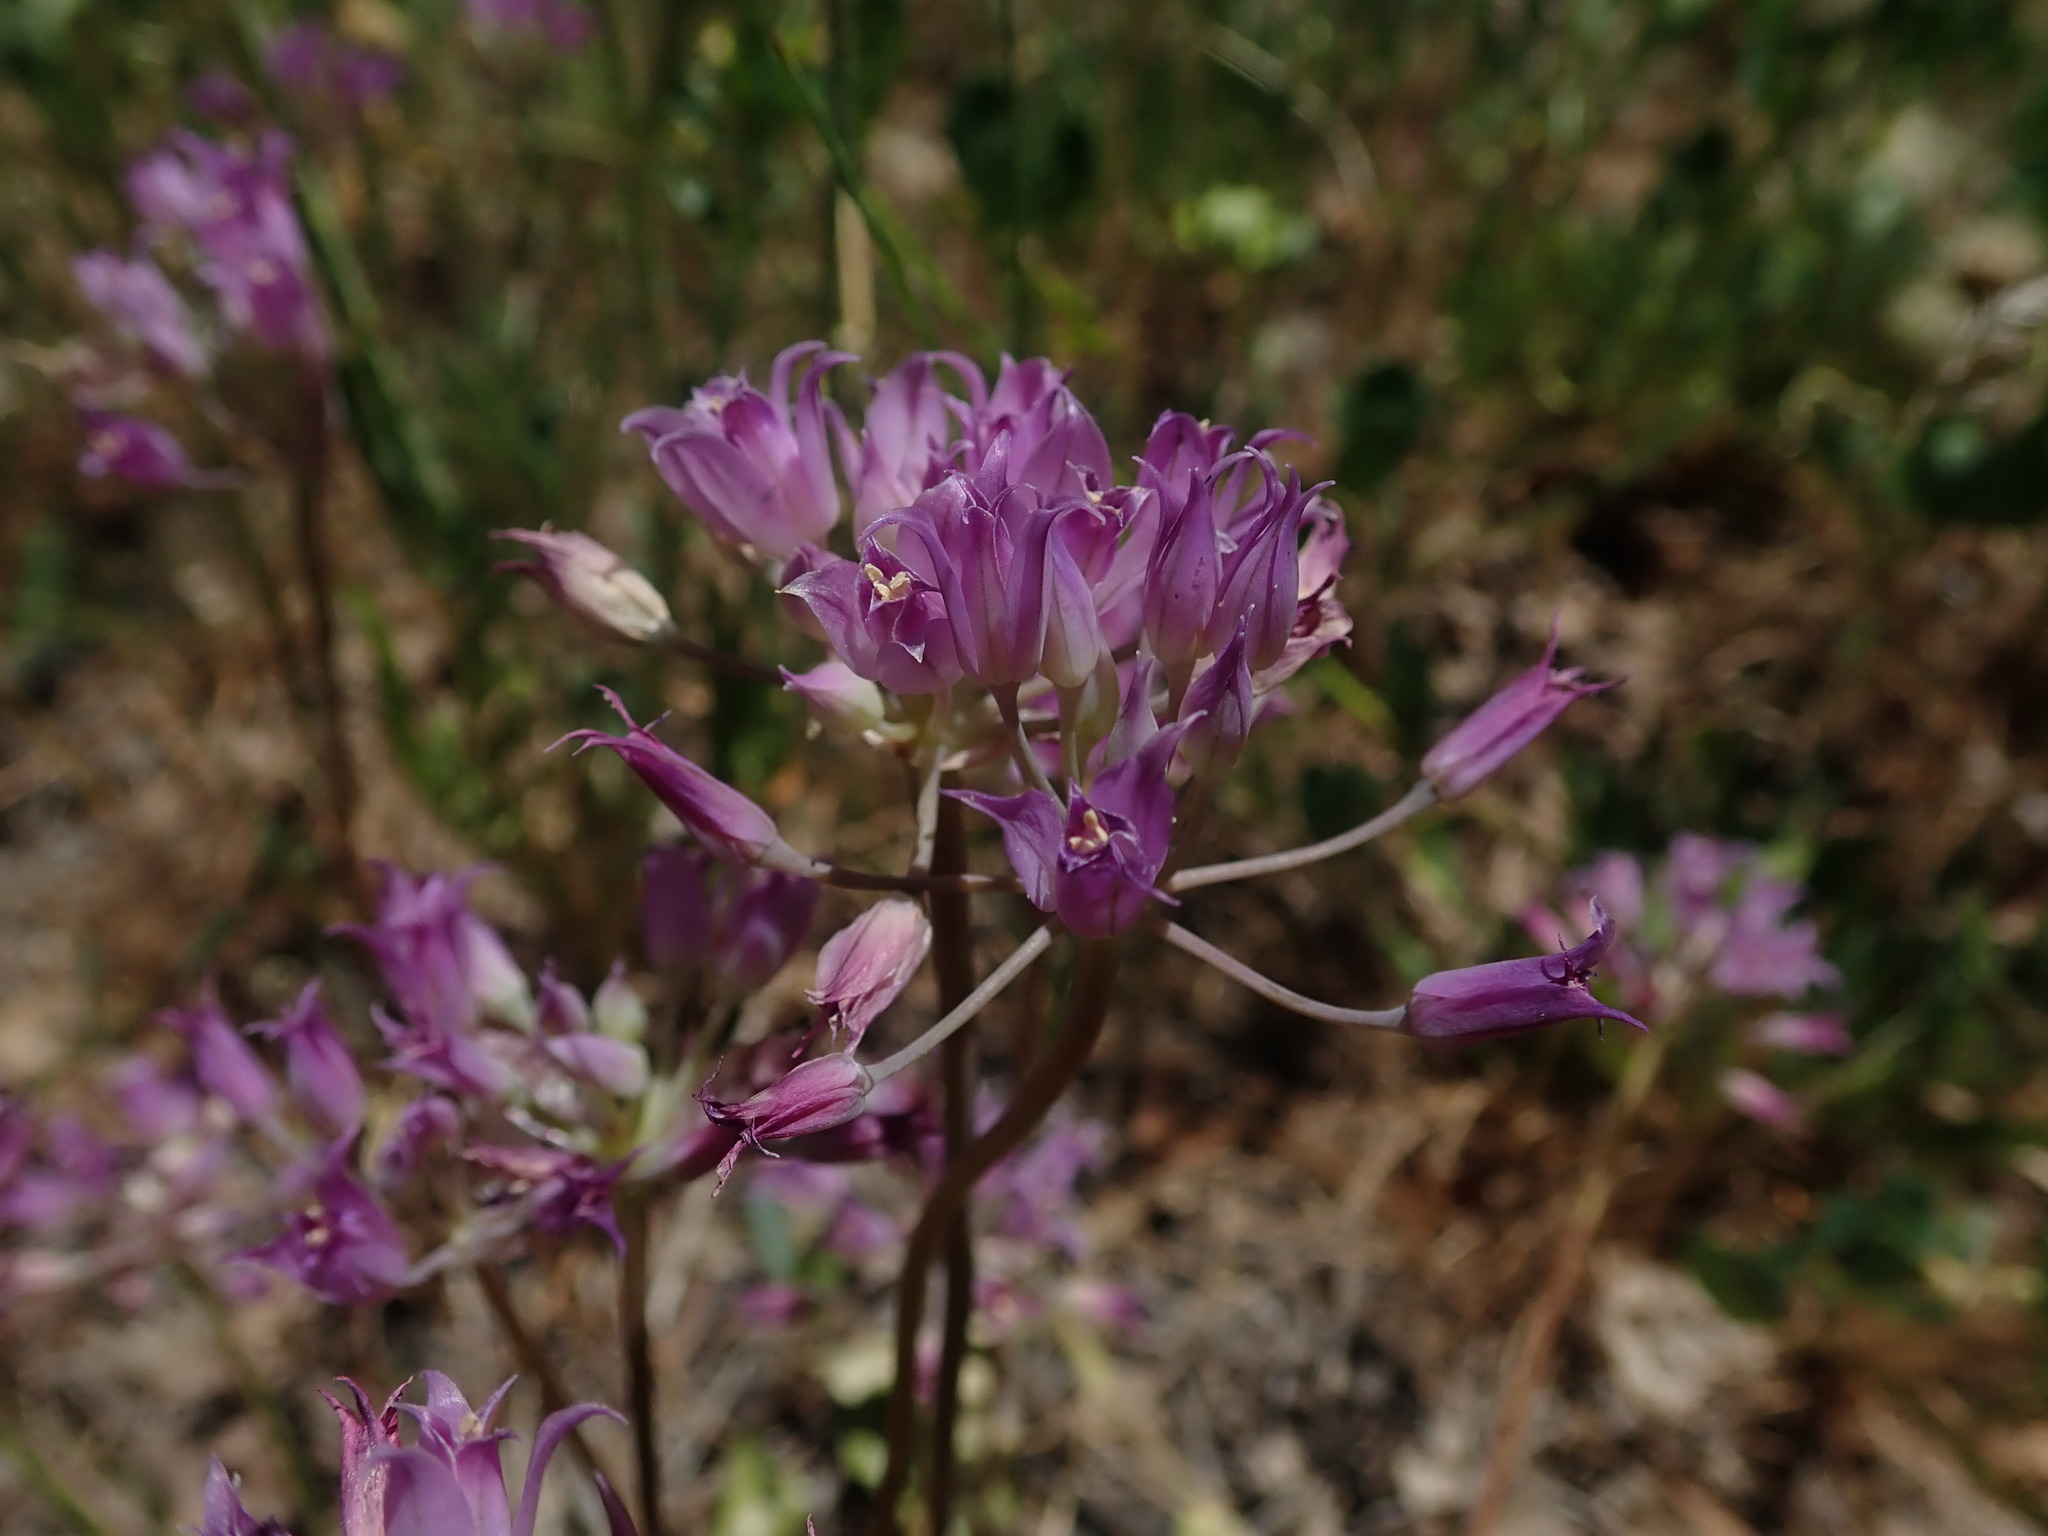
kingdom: Plantae
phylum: Tracheophyta
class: Liliopsida
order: Asparagales
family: Amaryllidaceae
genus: Allium
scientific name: Allium acuminatum
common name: Hooker's onion
